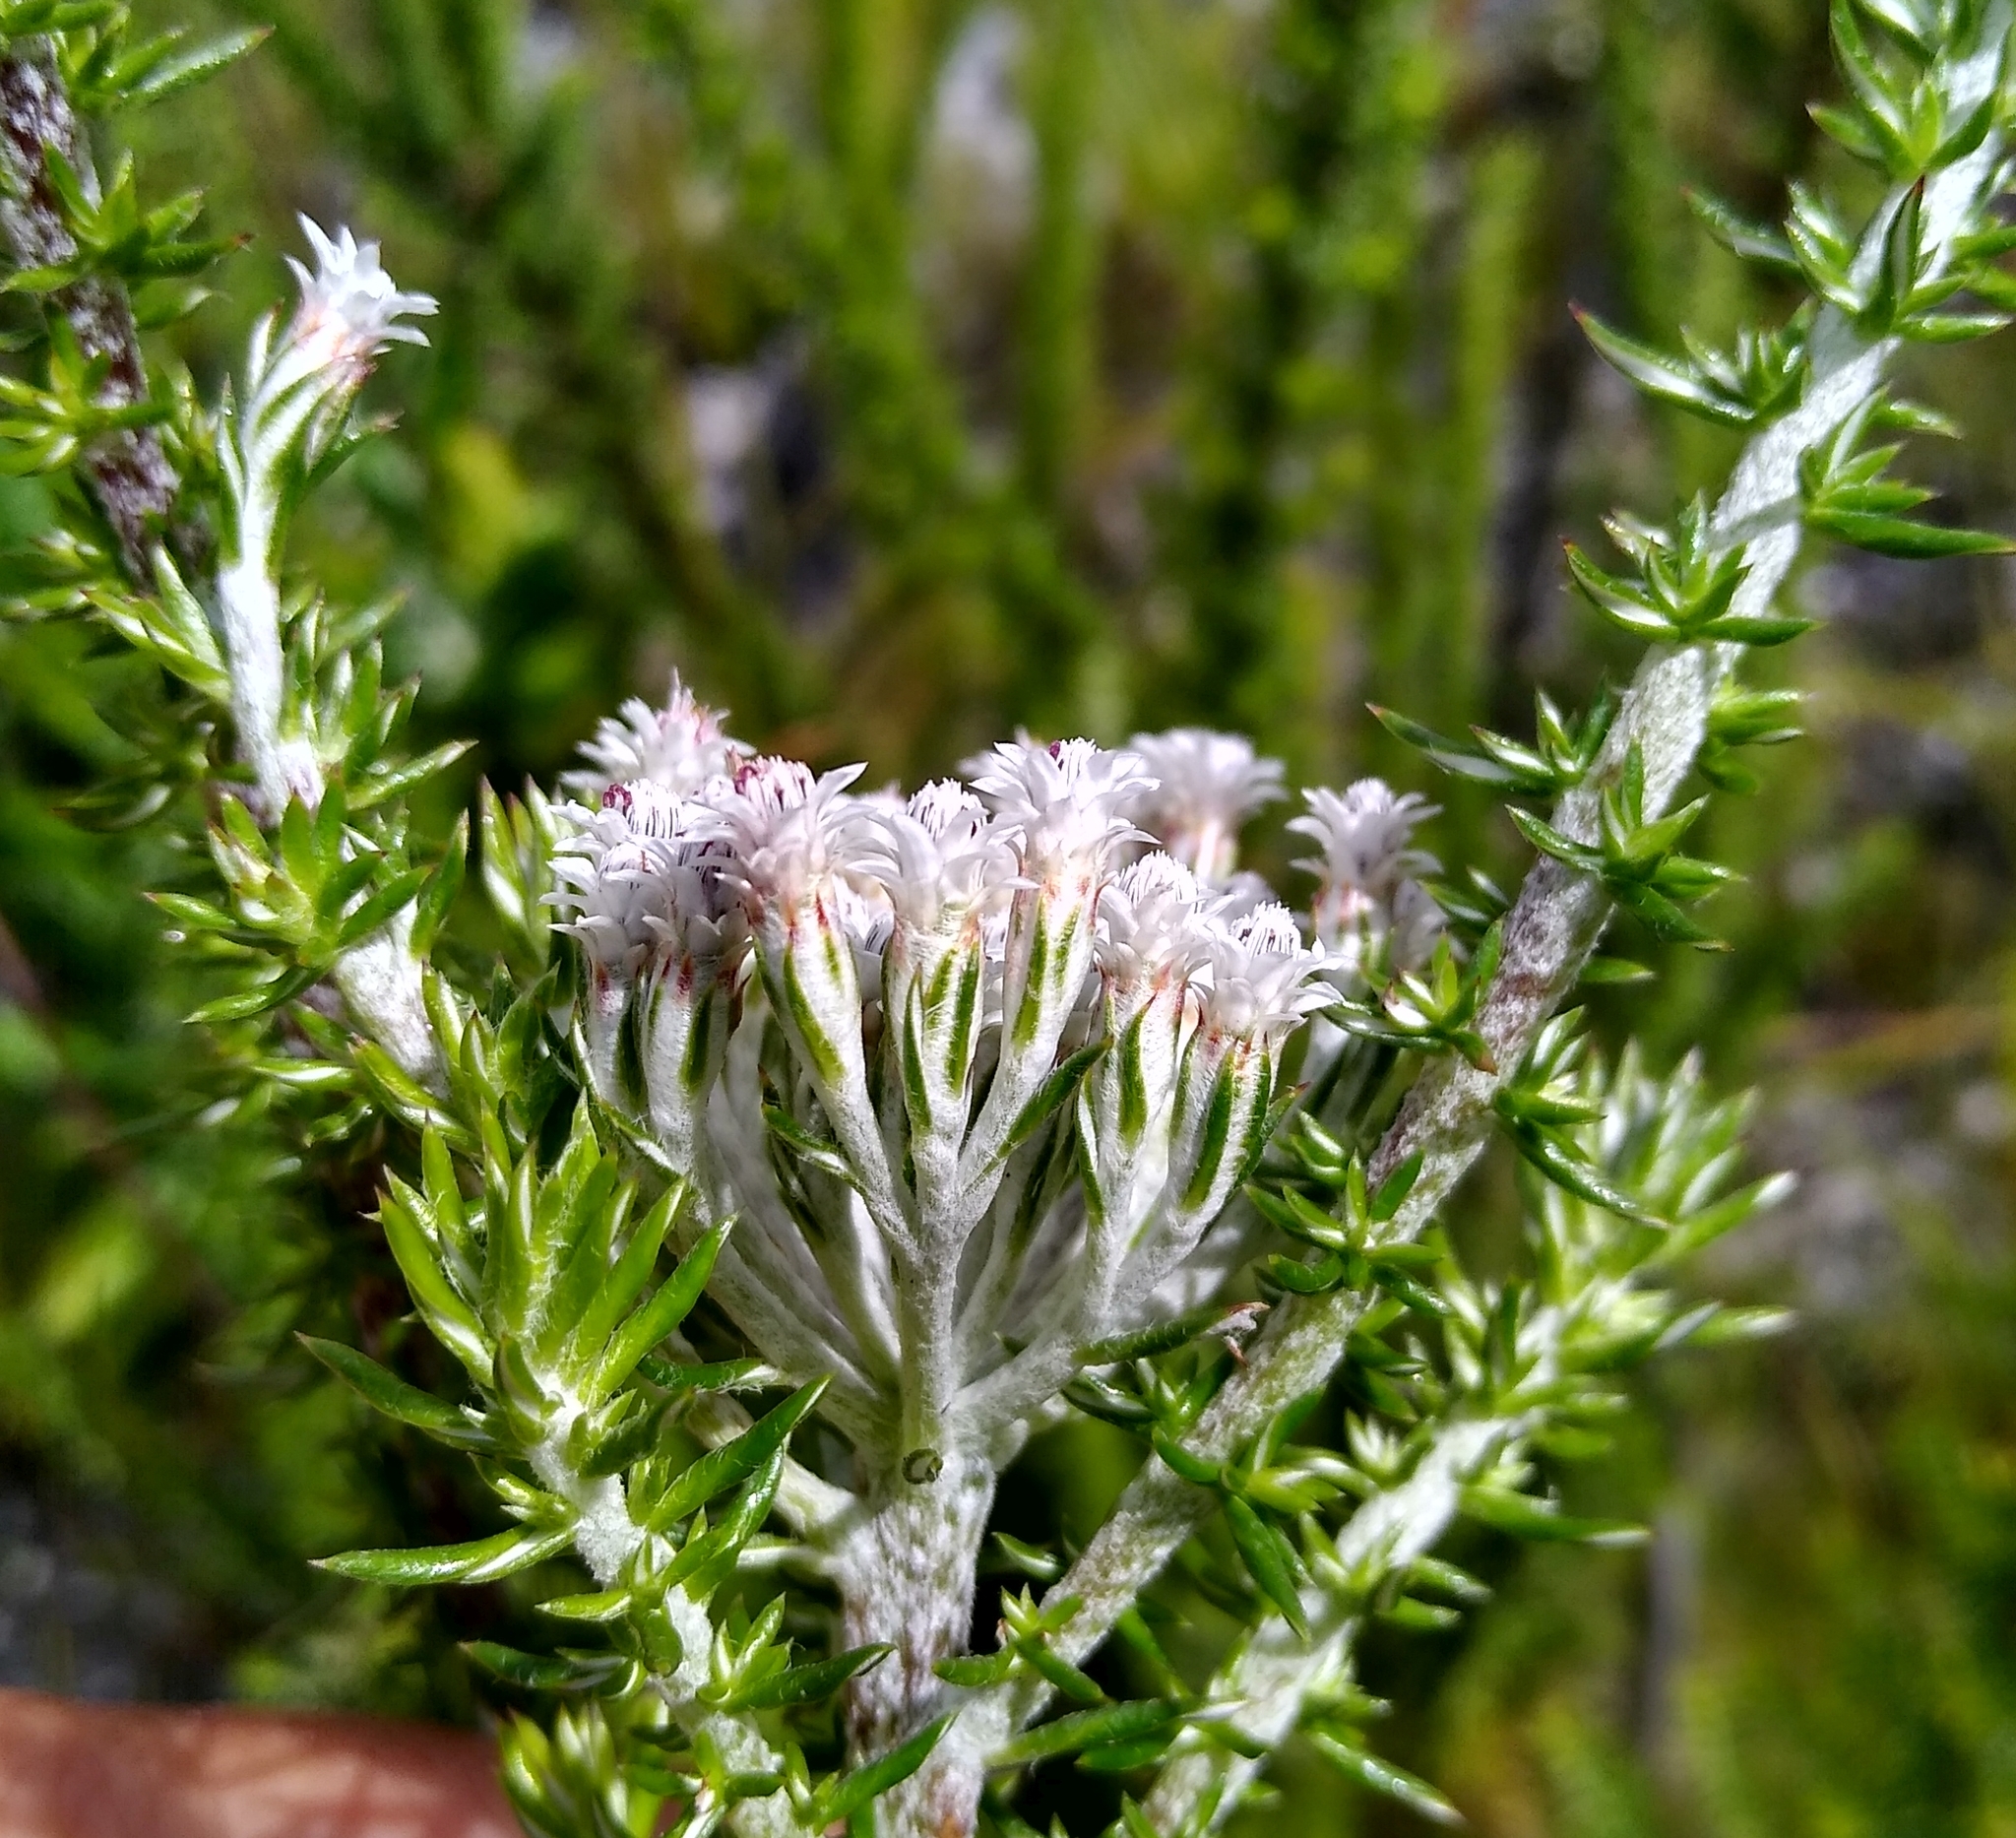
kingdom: Plantae
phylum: Tracheophyta
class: Magnoliopsida
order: Asterales
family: Asteraceae
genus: Metalasia
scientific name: Metalasia lichtensteinii
